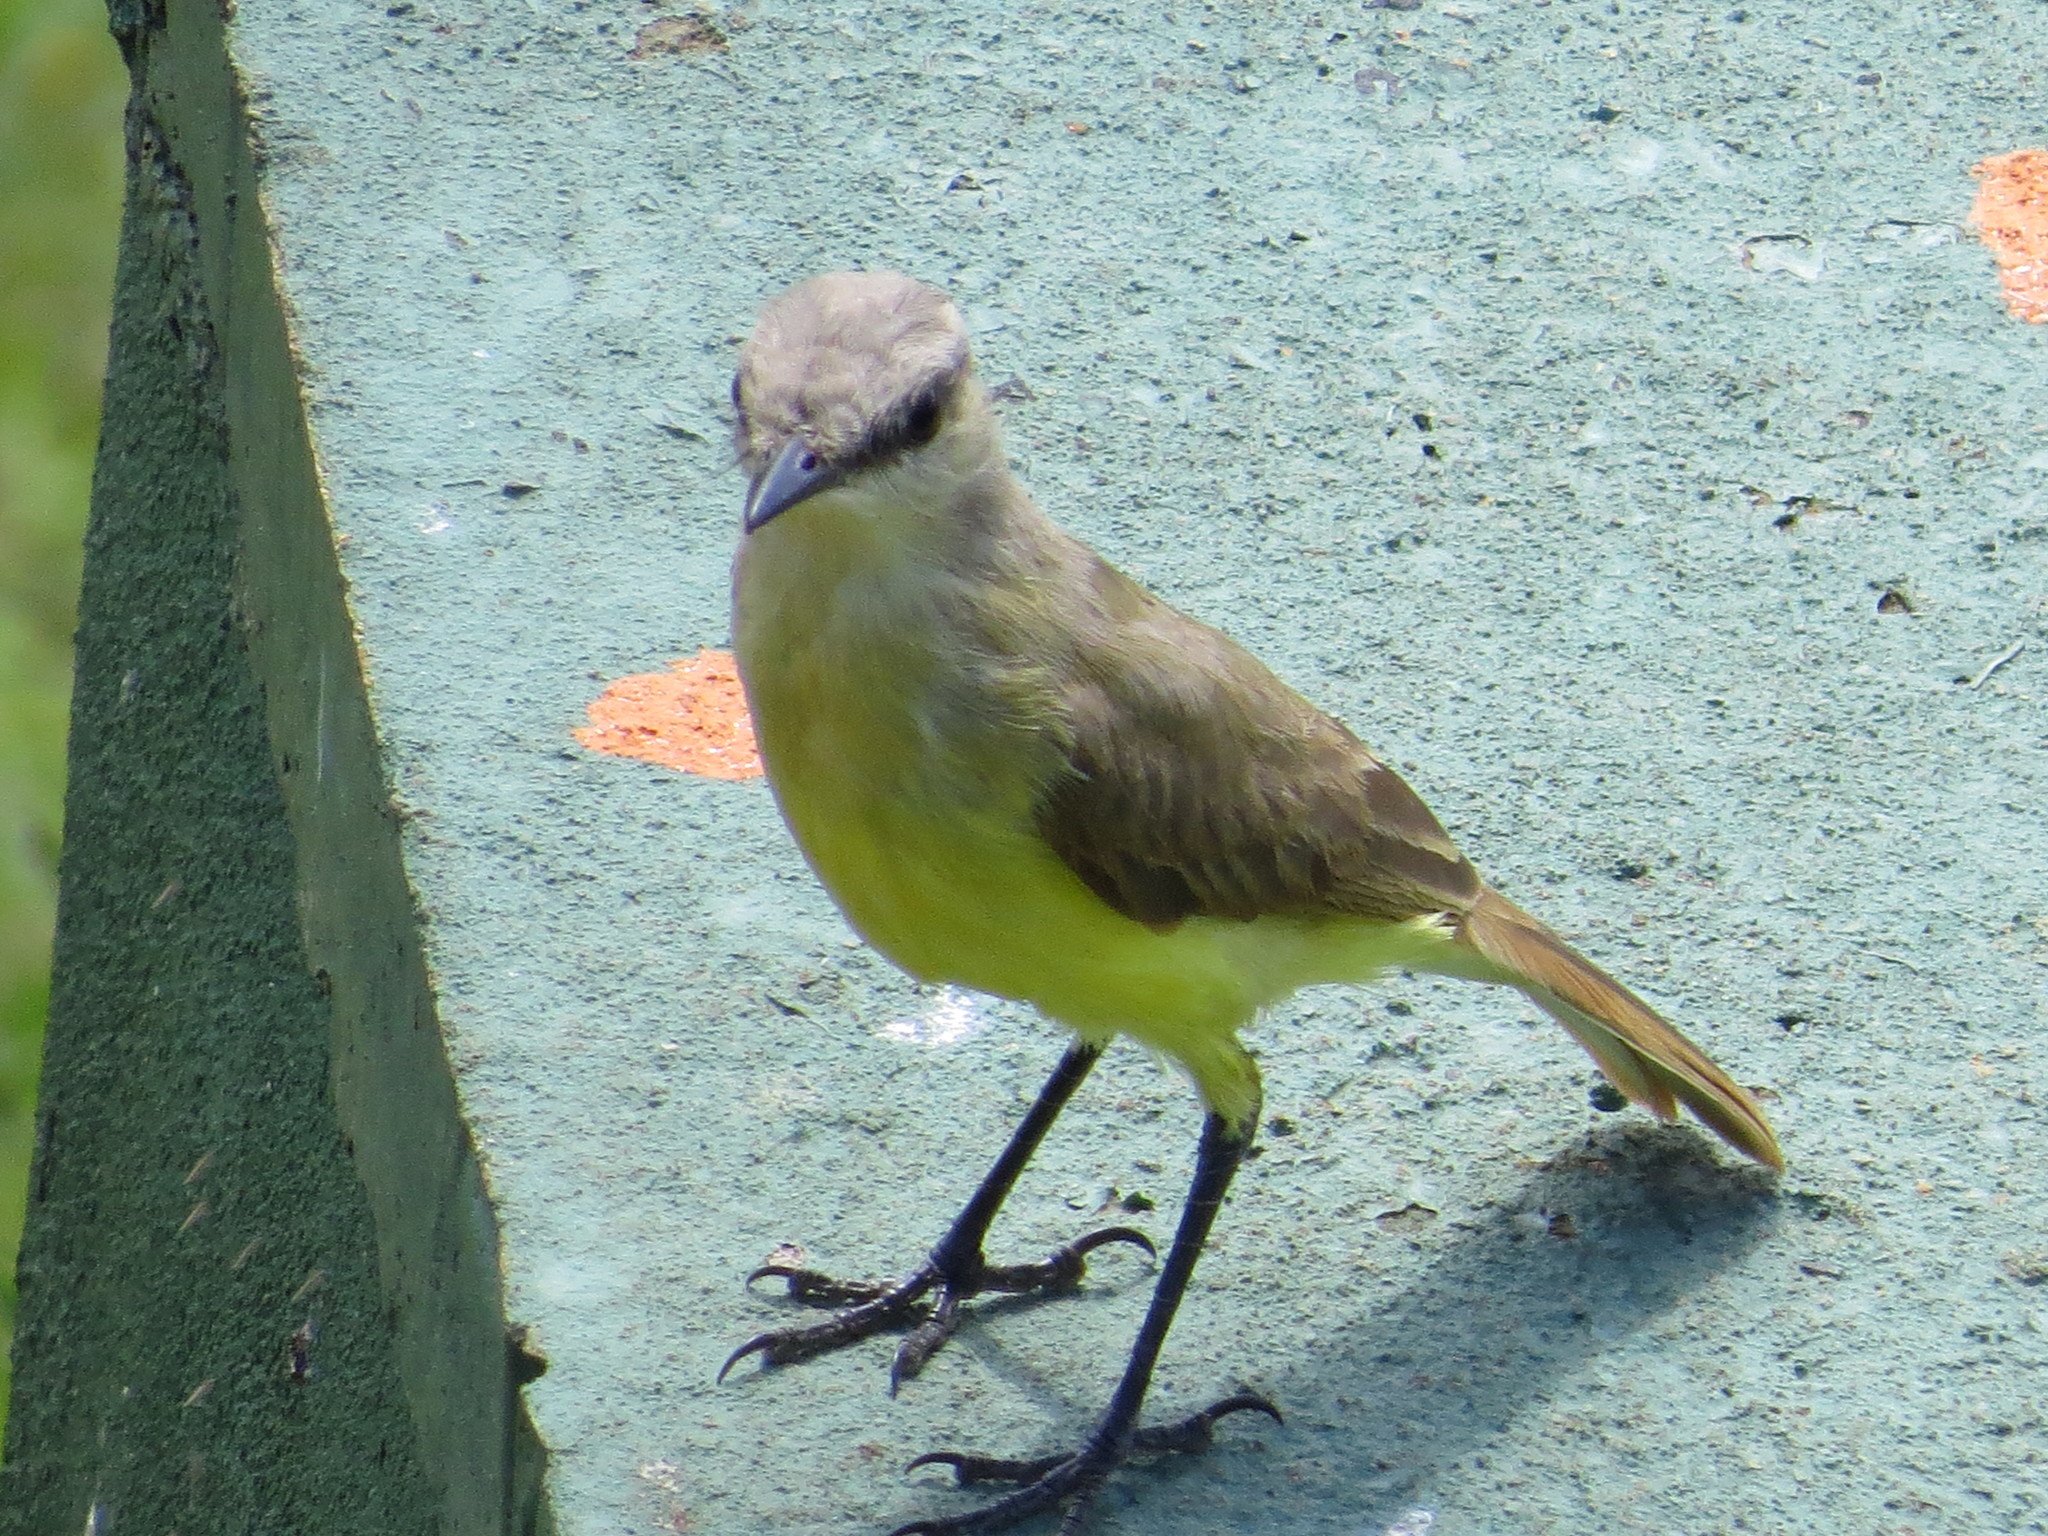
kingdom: Animalia
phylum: Chordata
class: Aves
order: Passeriformes
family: Tyrannidae
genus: Machetornis
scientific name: Machetornis rixosa
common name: Cattle tyrant
